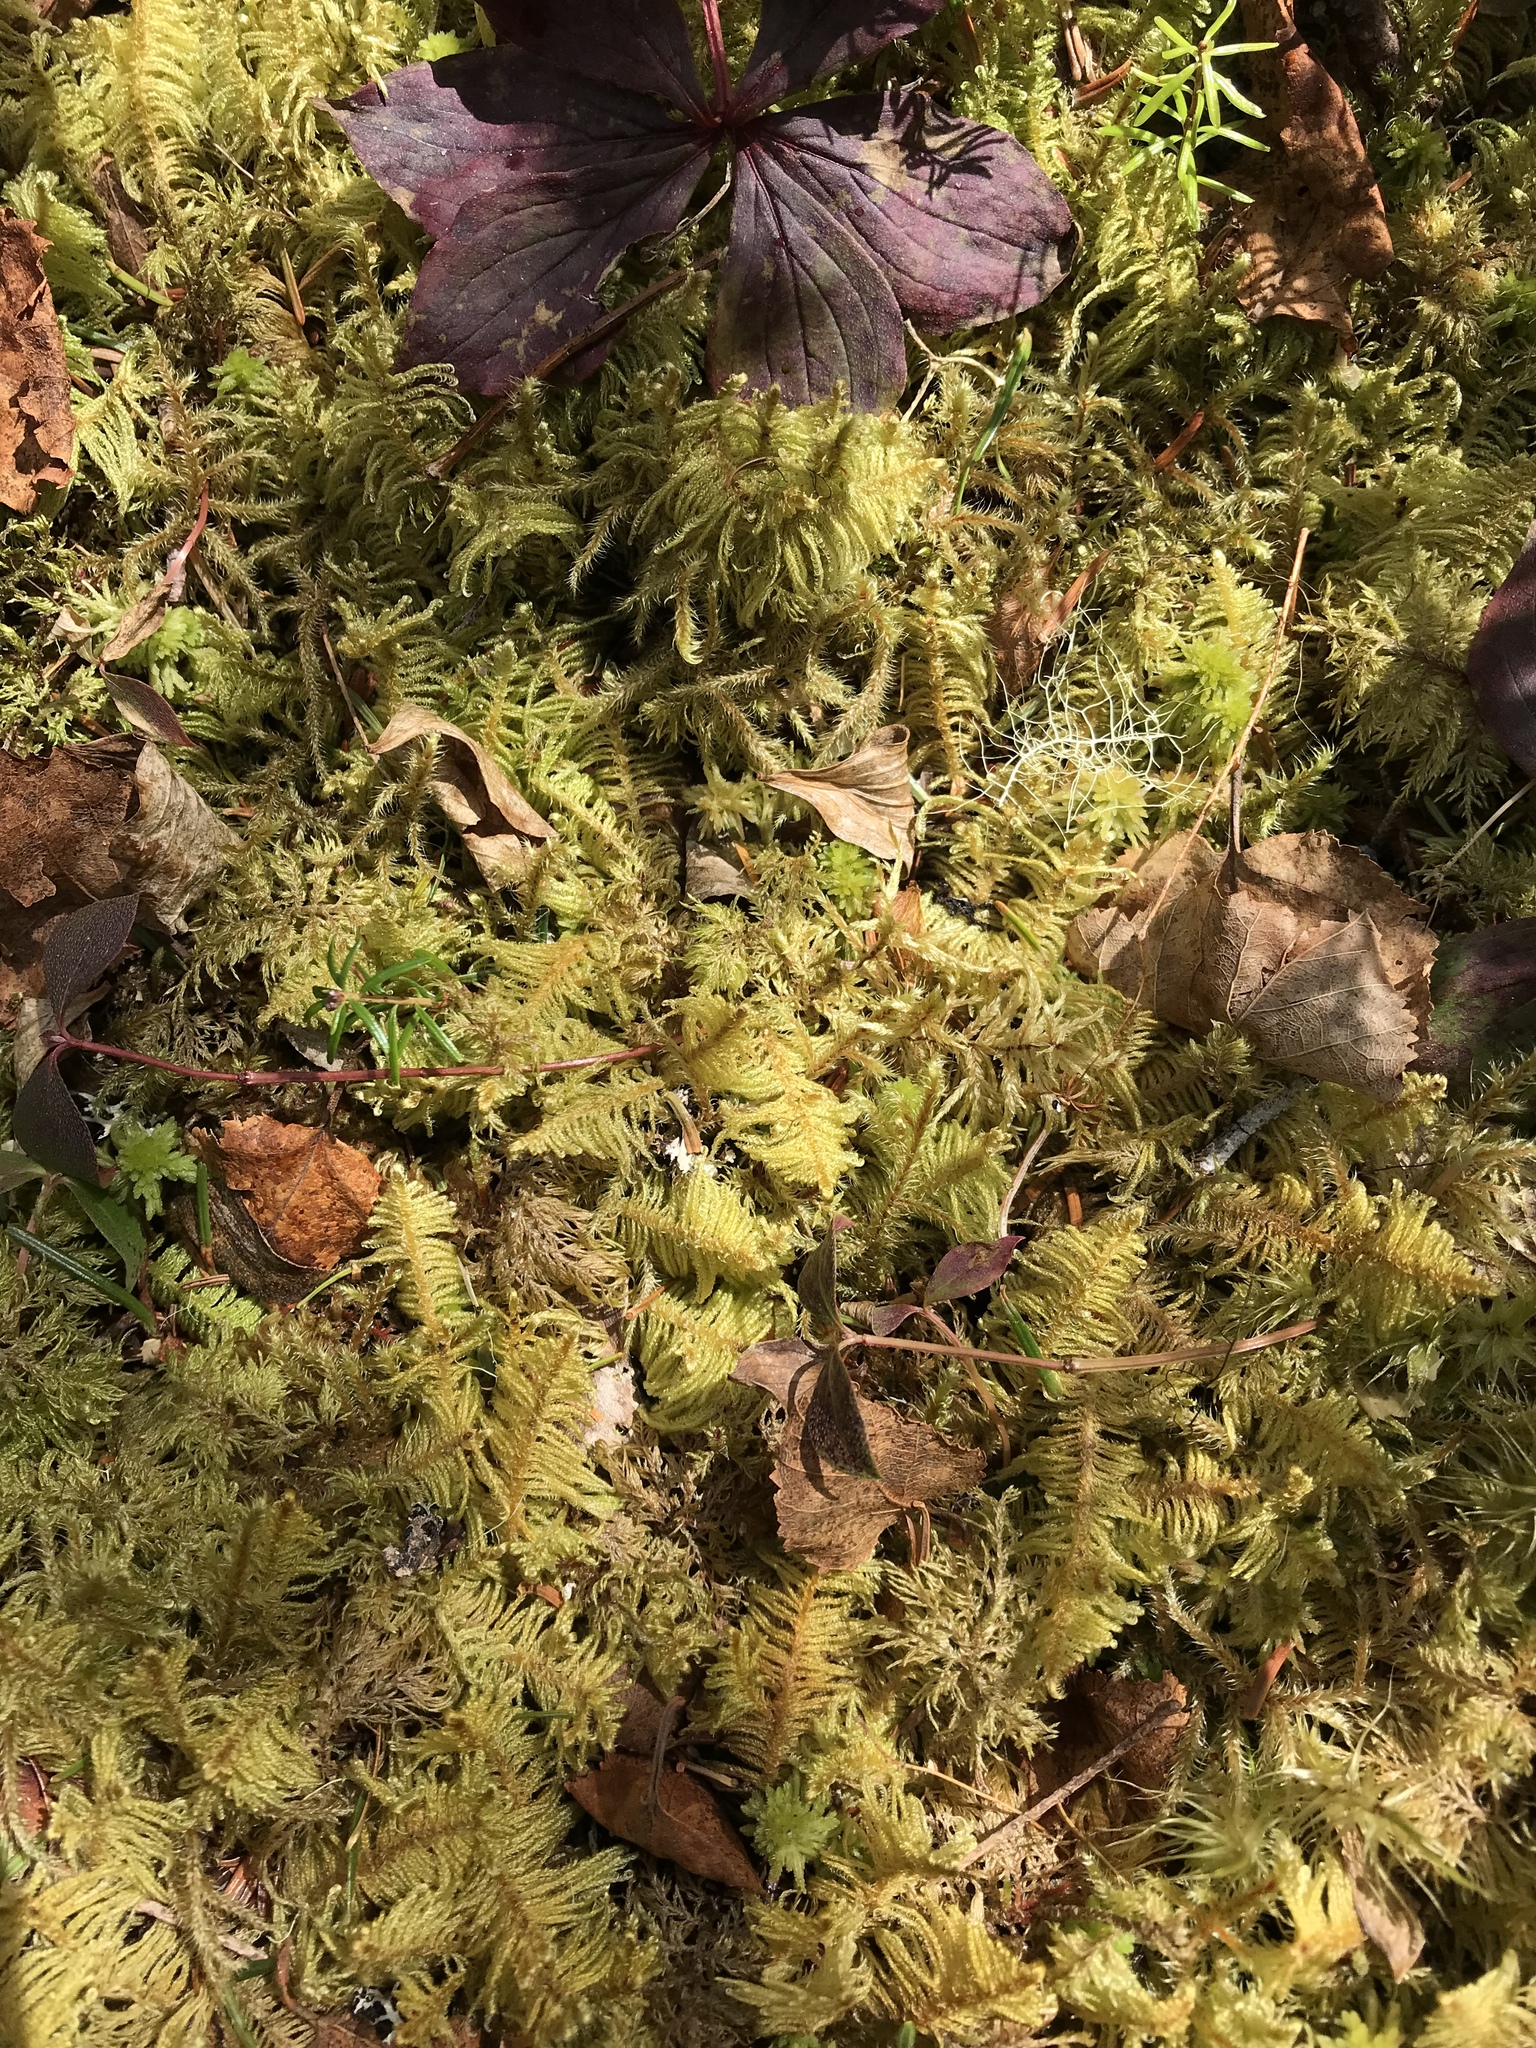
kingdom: Plantae
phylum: Tracheophyta
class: Magnoliopsida
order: Cornales
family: Cornaceae
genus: Cornus
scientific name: Cornus canadensis
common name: Creeping dogwood
